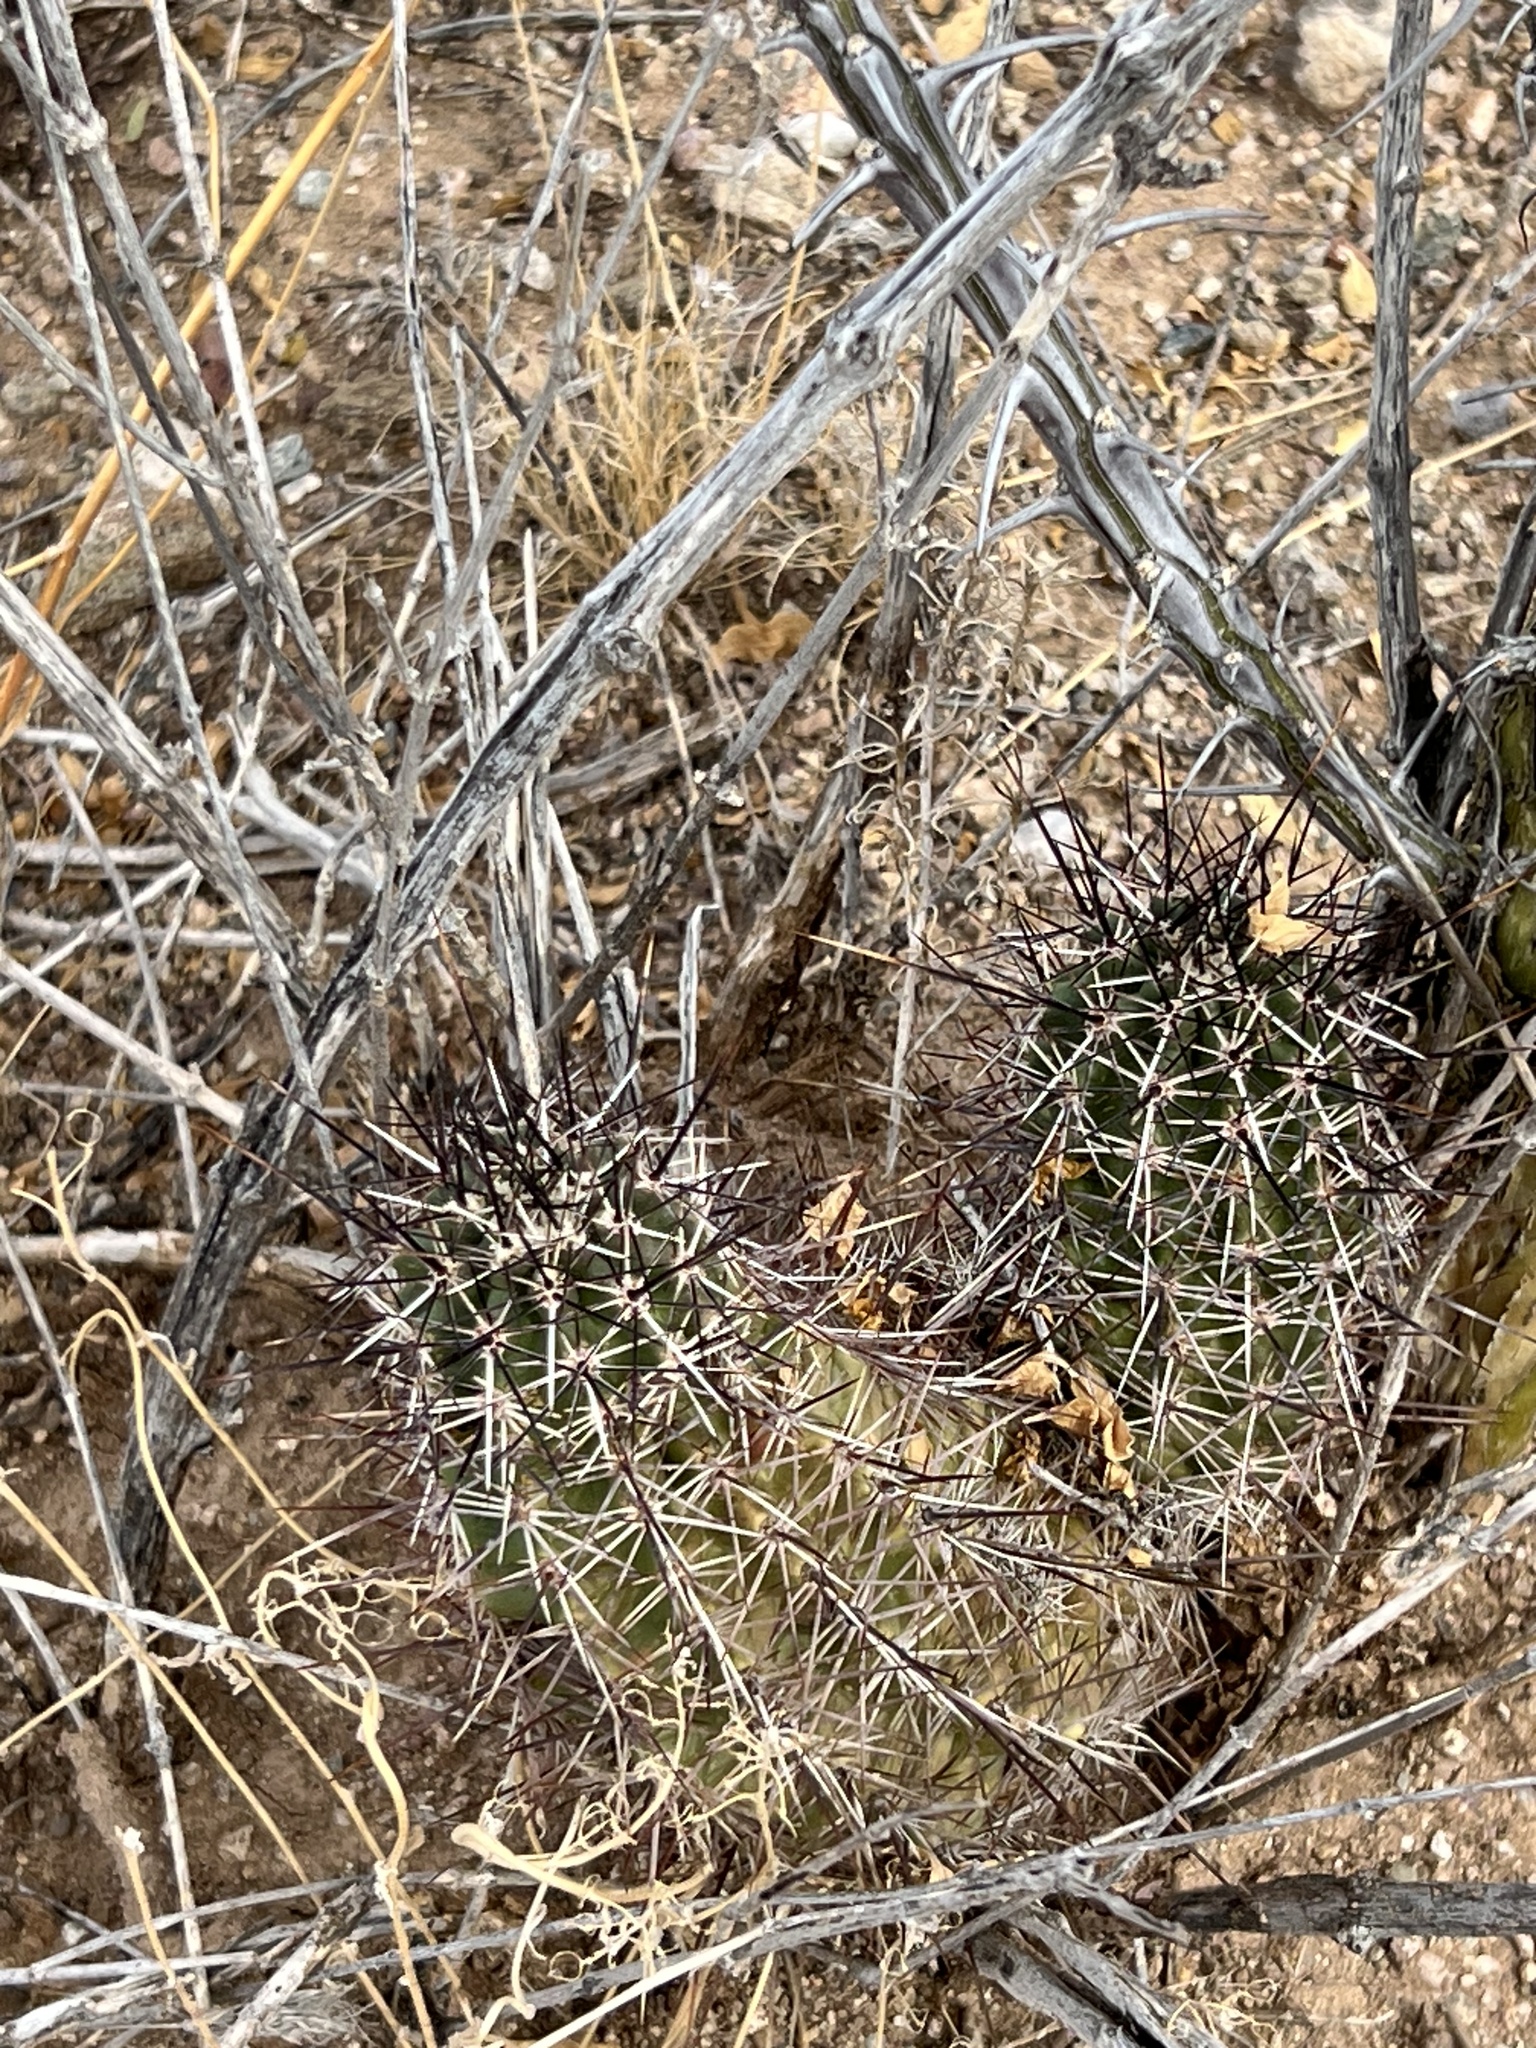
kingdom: Plantae
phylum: Tracheophyta
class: Magnoliopsida
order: Caryophyllales
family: Cactaceae
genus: Echinocereus
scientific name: Echinocereus fasciculatus
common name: Bundle hedgehog
